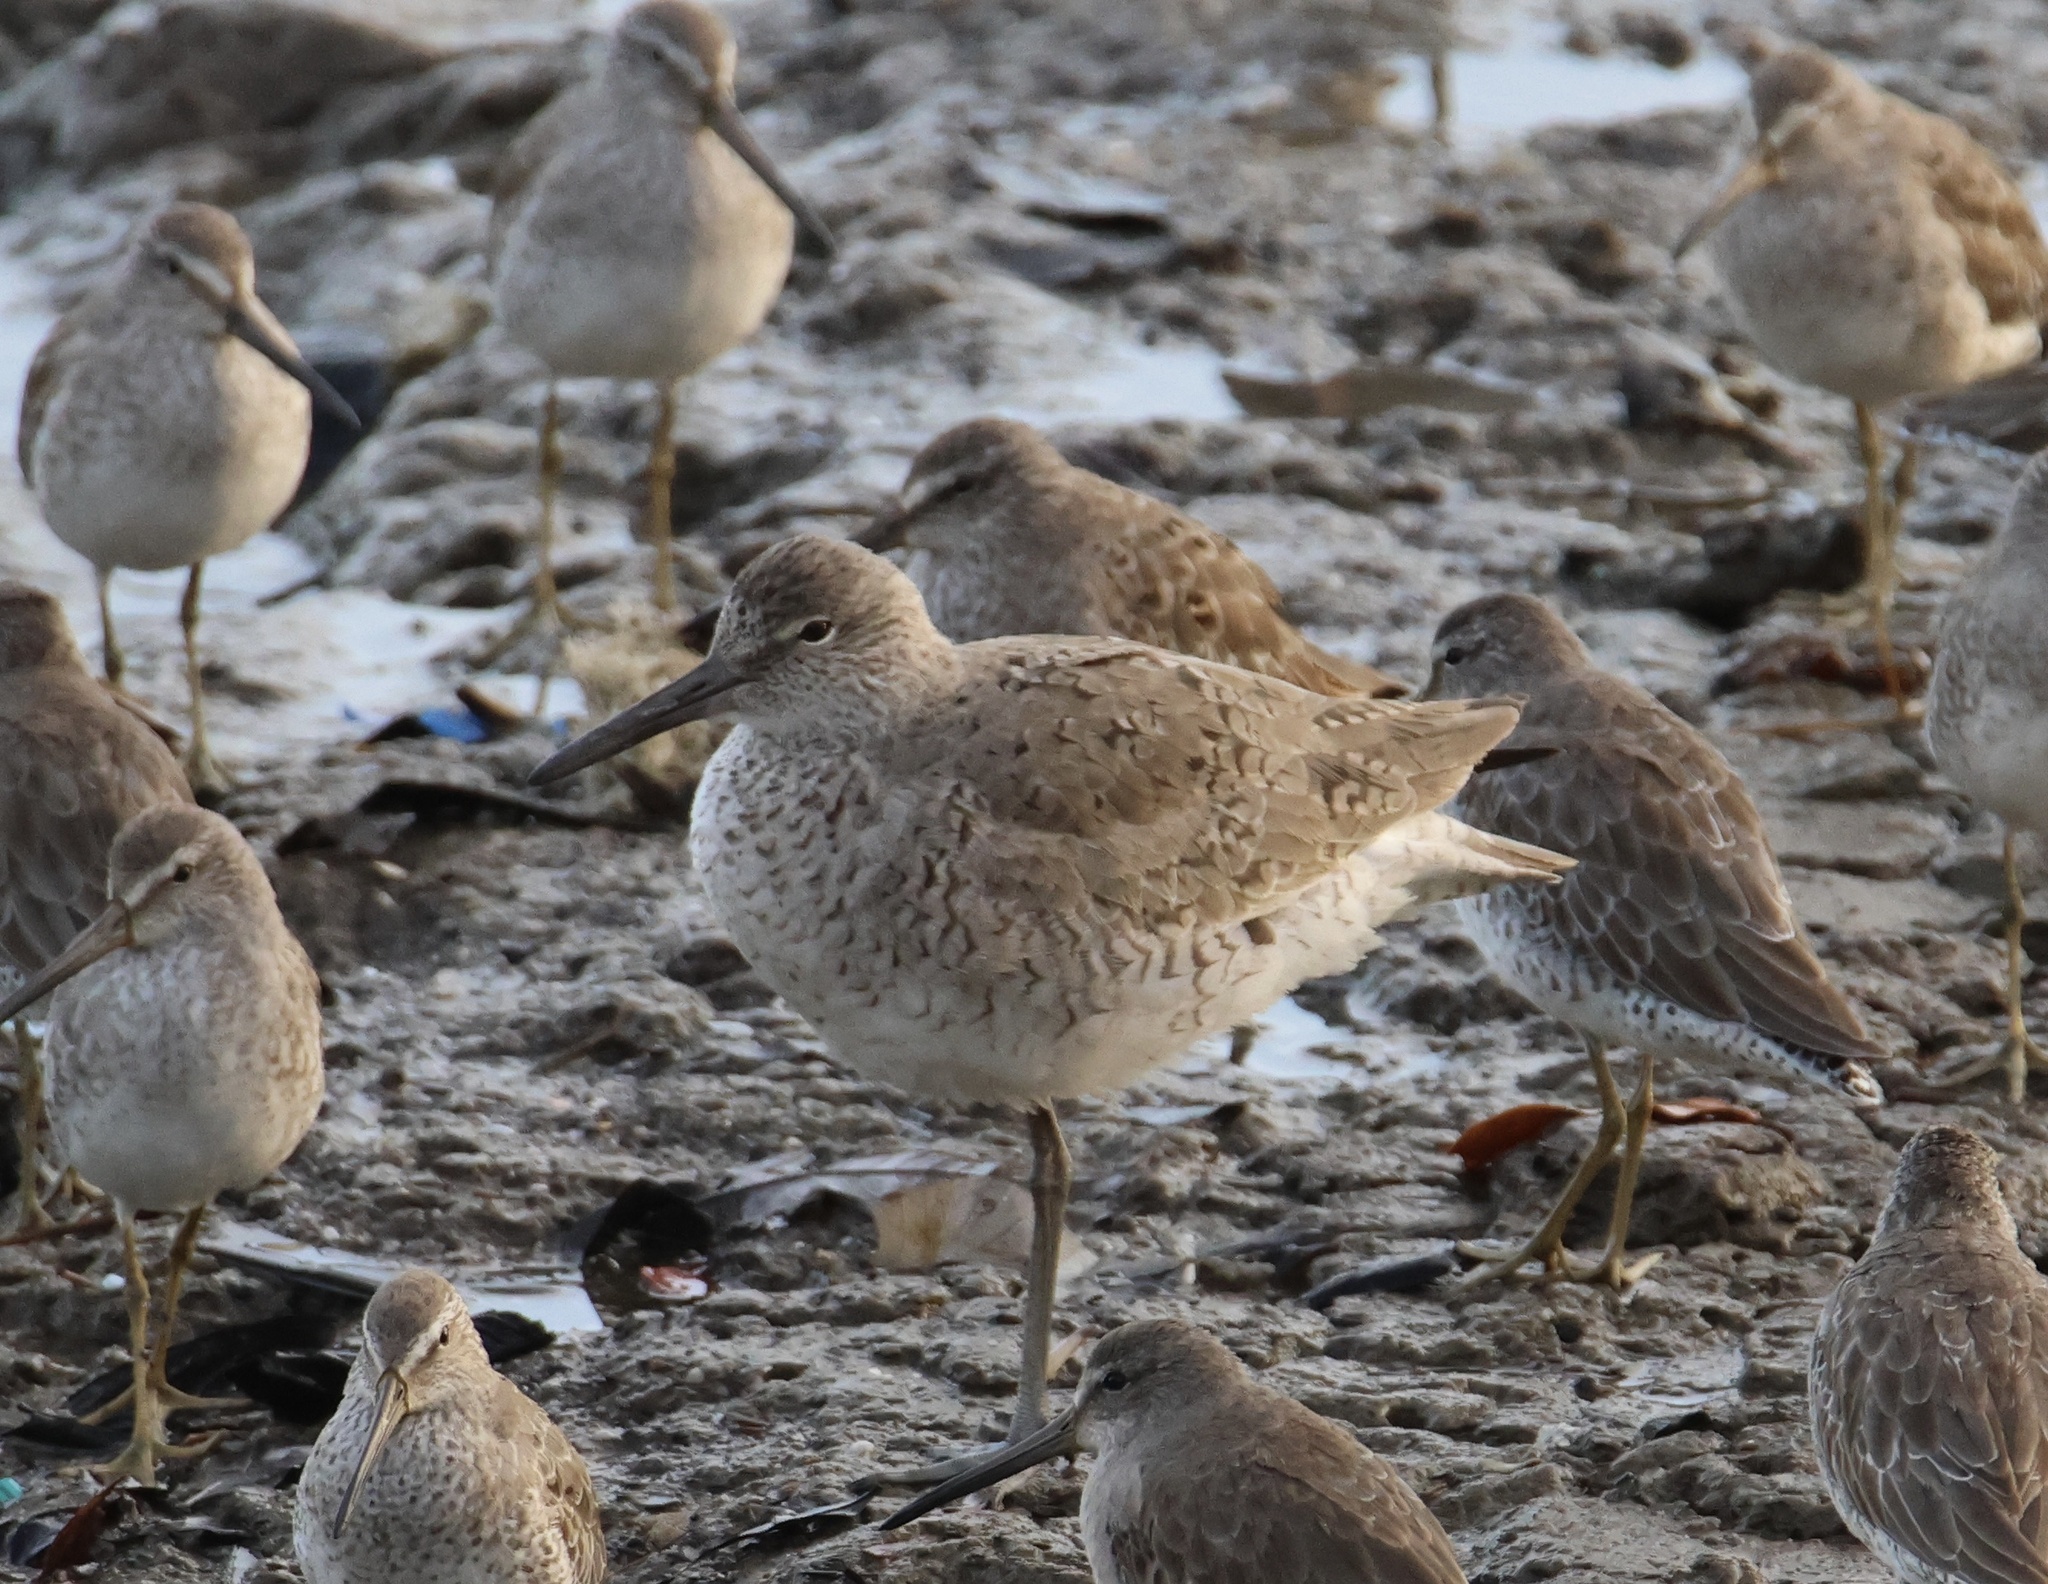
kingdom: Animalia
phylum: Chordata
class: Aves
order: Charadriiformes
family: Scolopacidae
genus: Tringa
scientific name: Tringa semipalmata
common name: Willet
